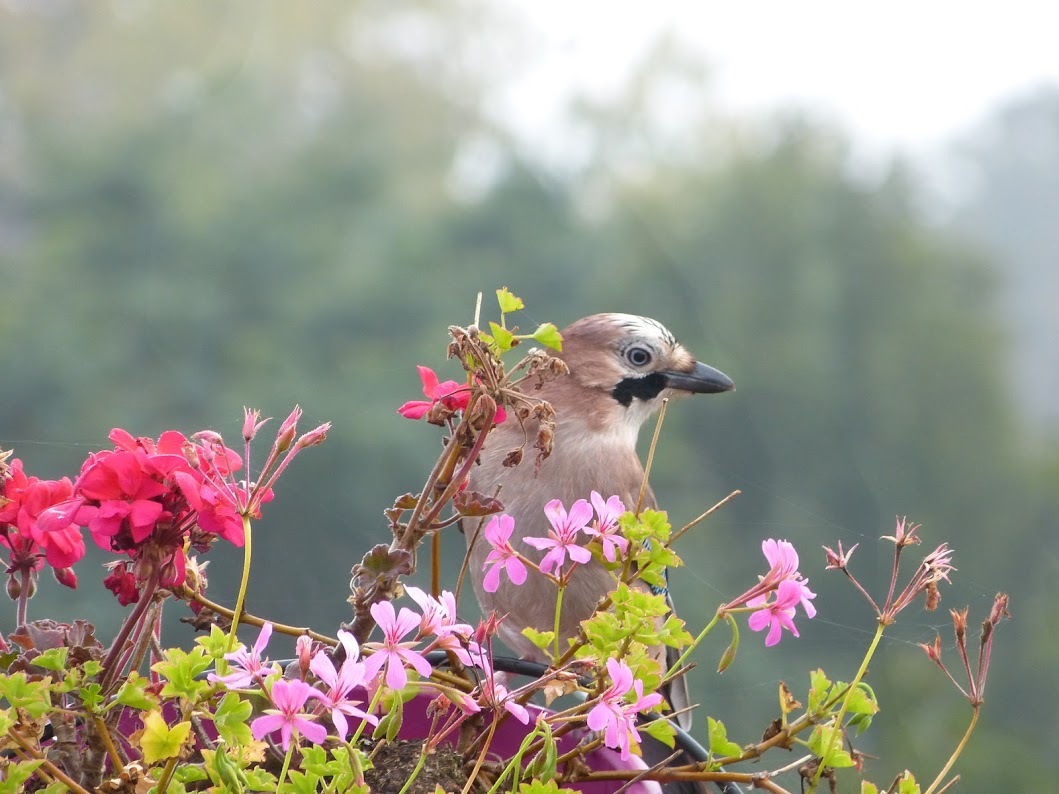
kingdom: Animalia
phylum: Chordata
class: Aves
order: Passeriformes
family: Corvidae
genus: Garrulus
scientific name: Garrulus glandarius
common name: Eurasian jay
